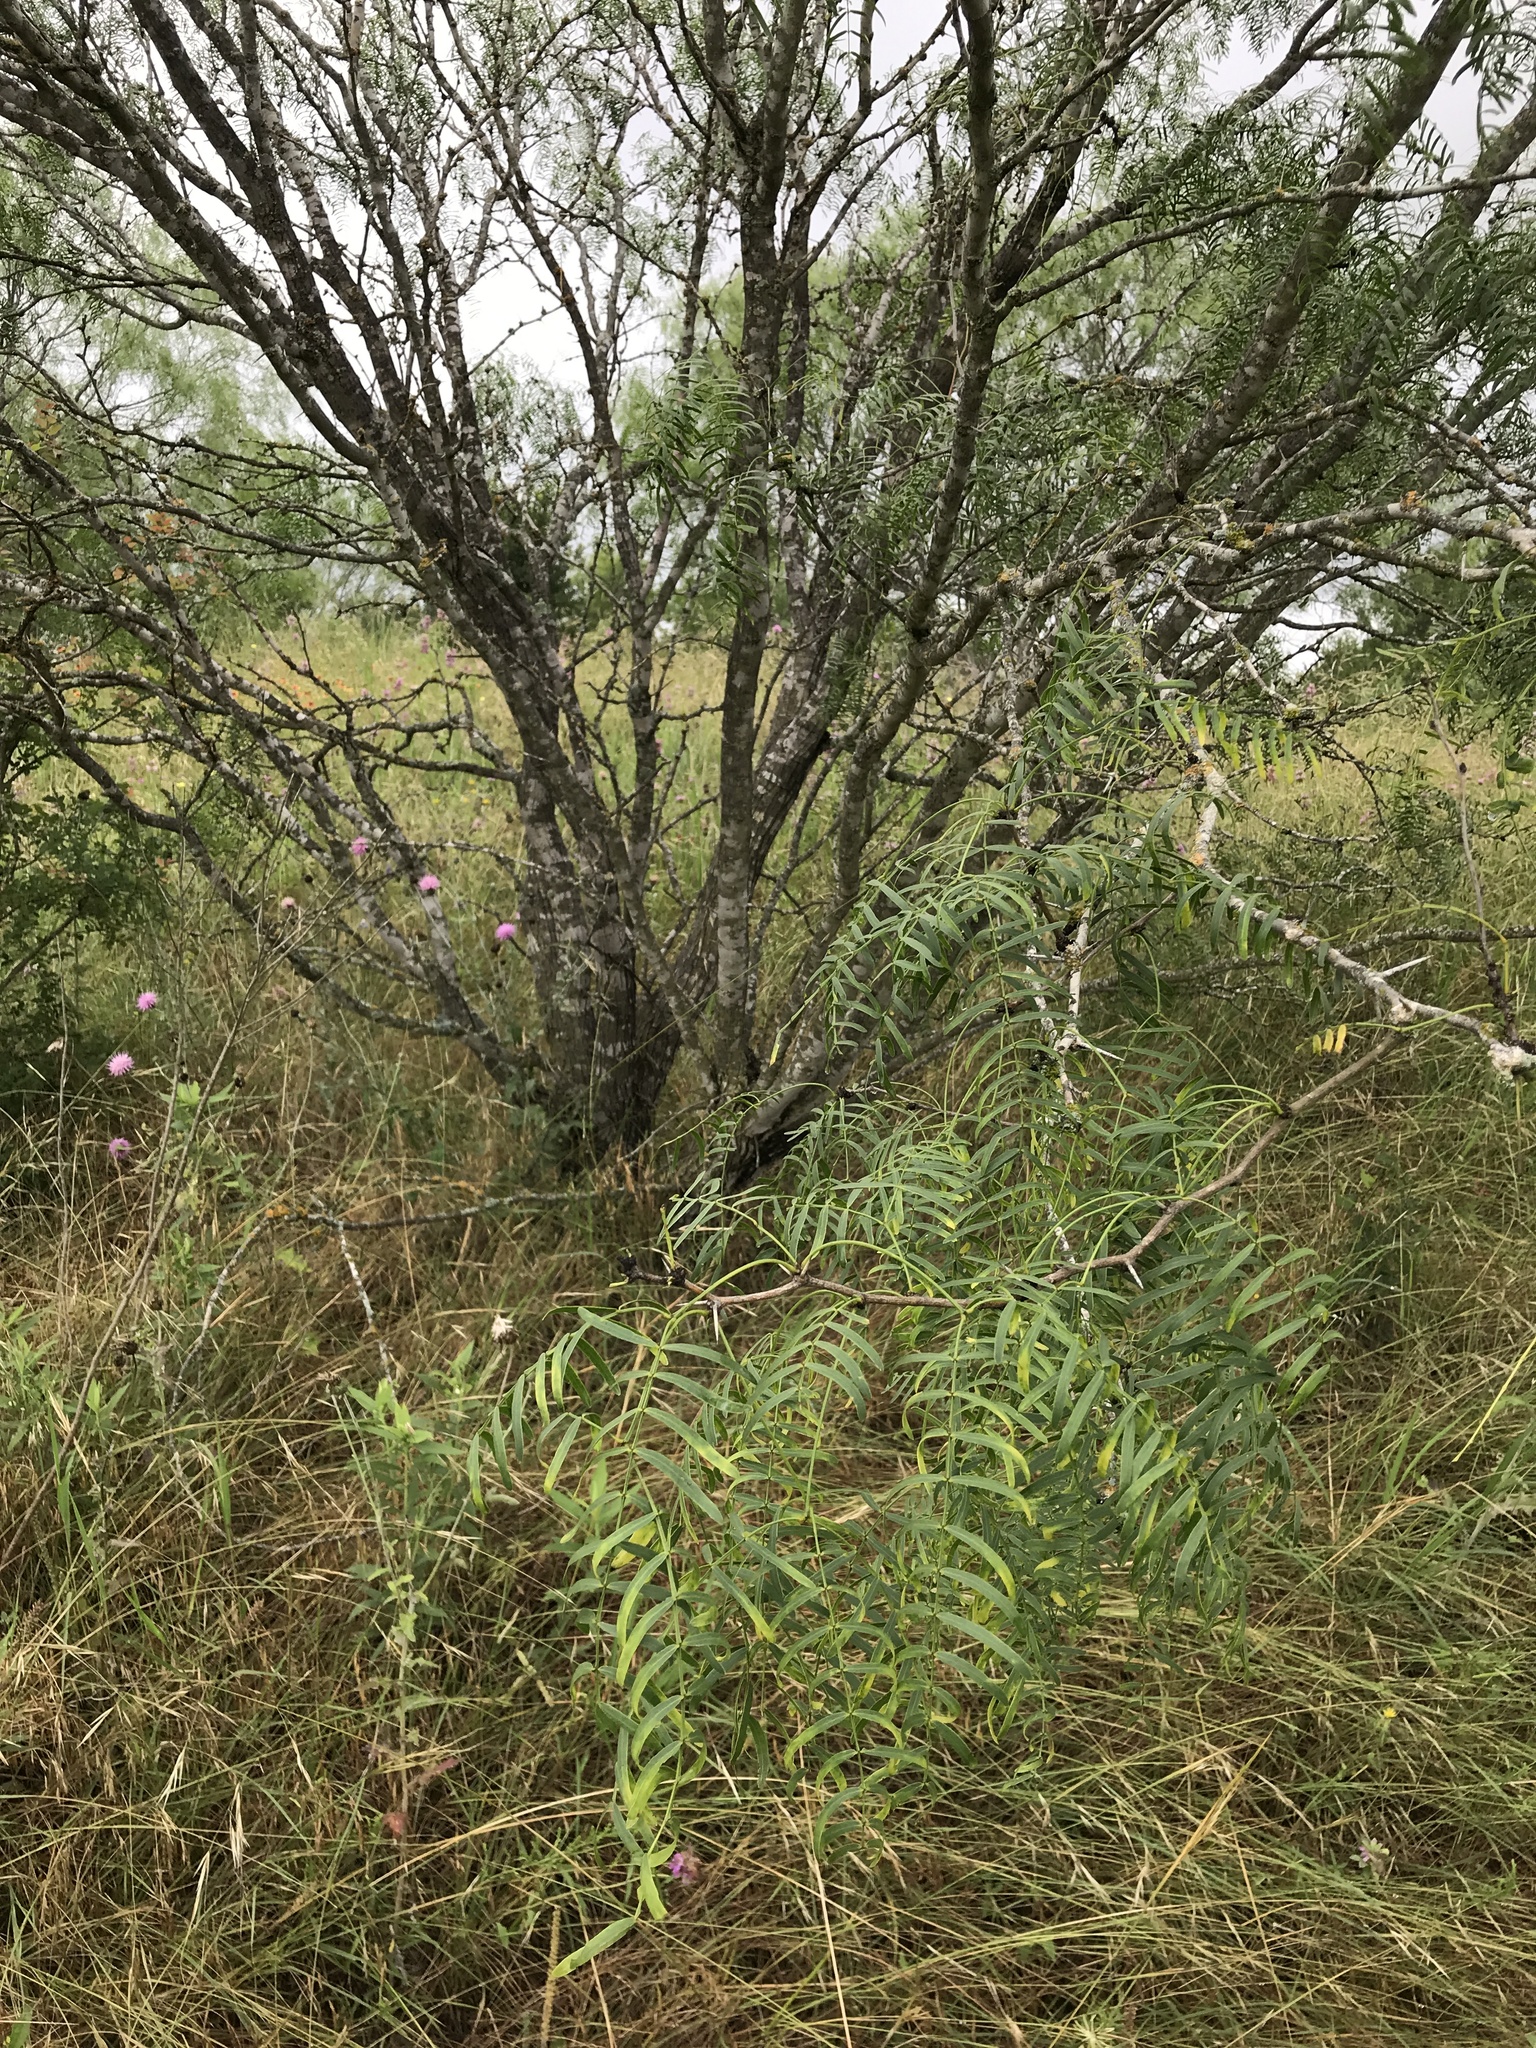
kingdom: Plantae
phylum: Tracheophyta
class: Magnoliopsida
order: Fabales
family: Fabaceae
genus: Prosopis
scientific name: Prosopis glandulosa
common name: Honey mesquite
